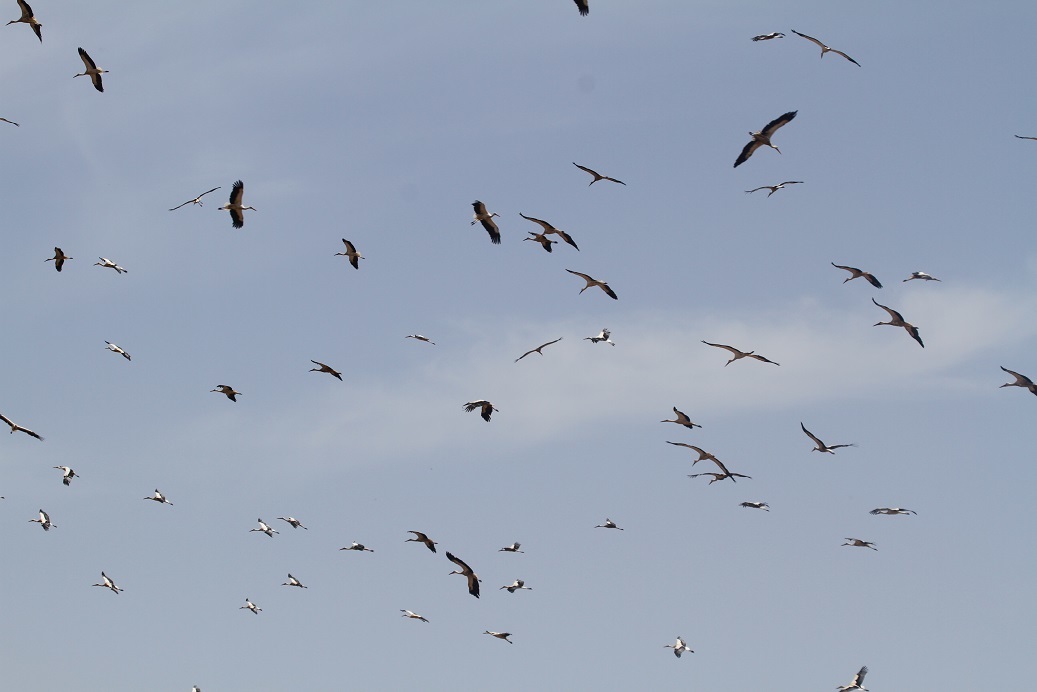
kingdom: Animalia
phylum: Chordata
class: Aves
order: Ciconiiformes
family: Ciconiidae
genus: Ciconia
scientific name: Ciconia ciconia
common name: White stork
